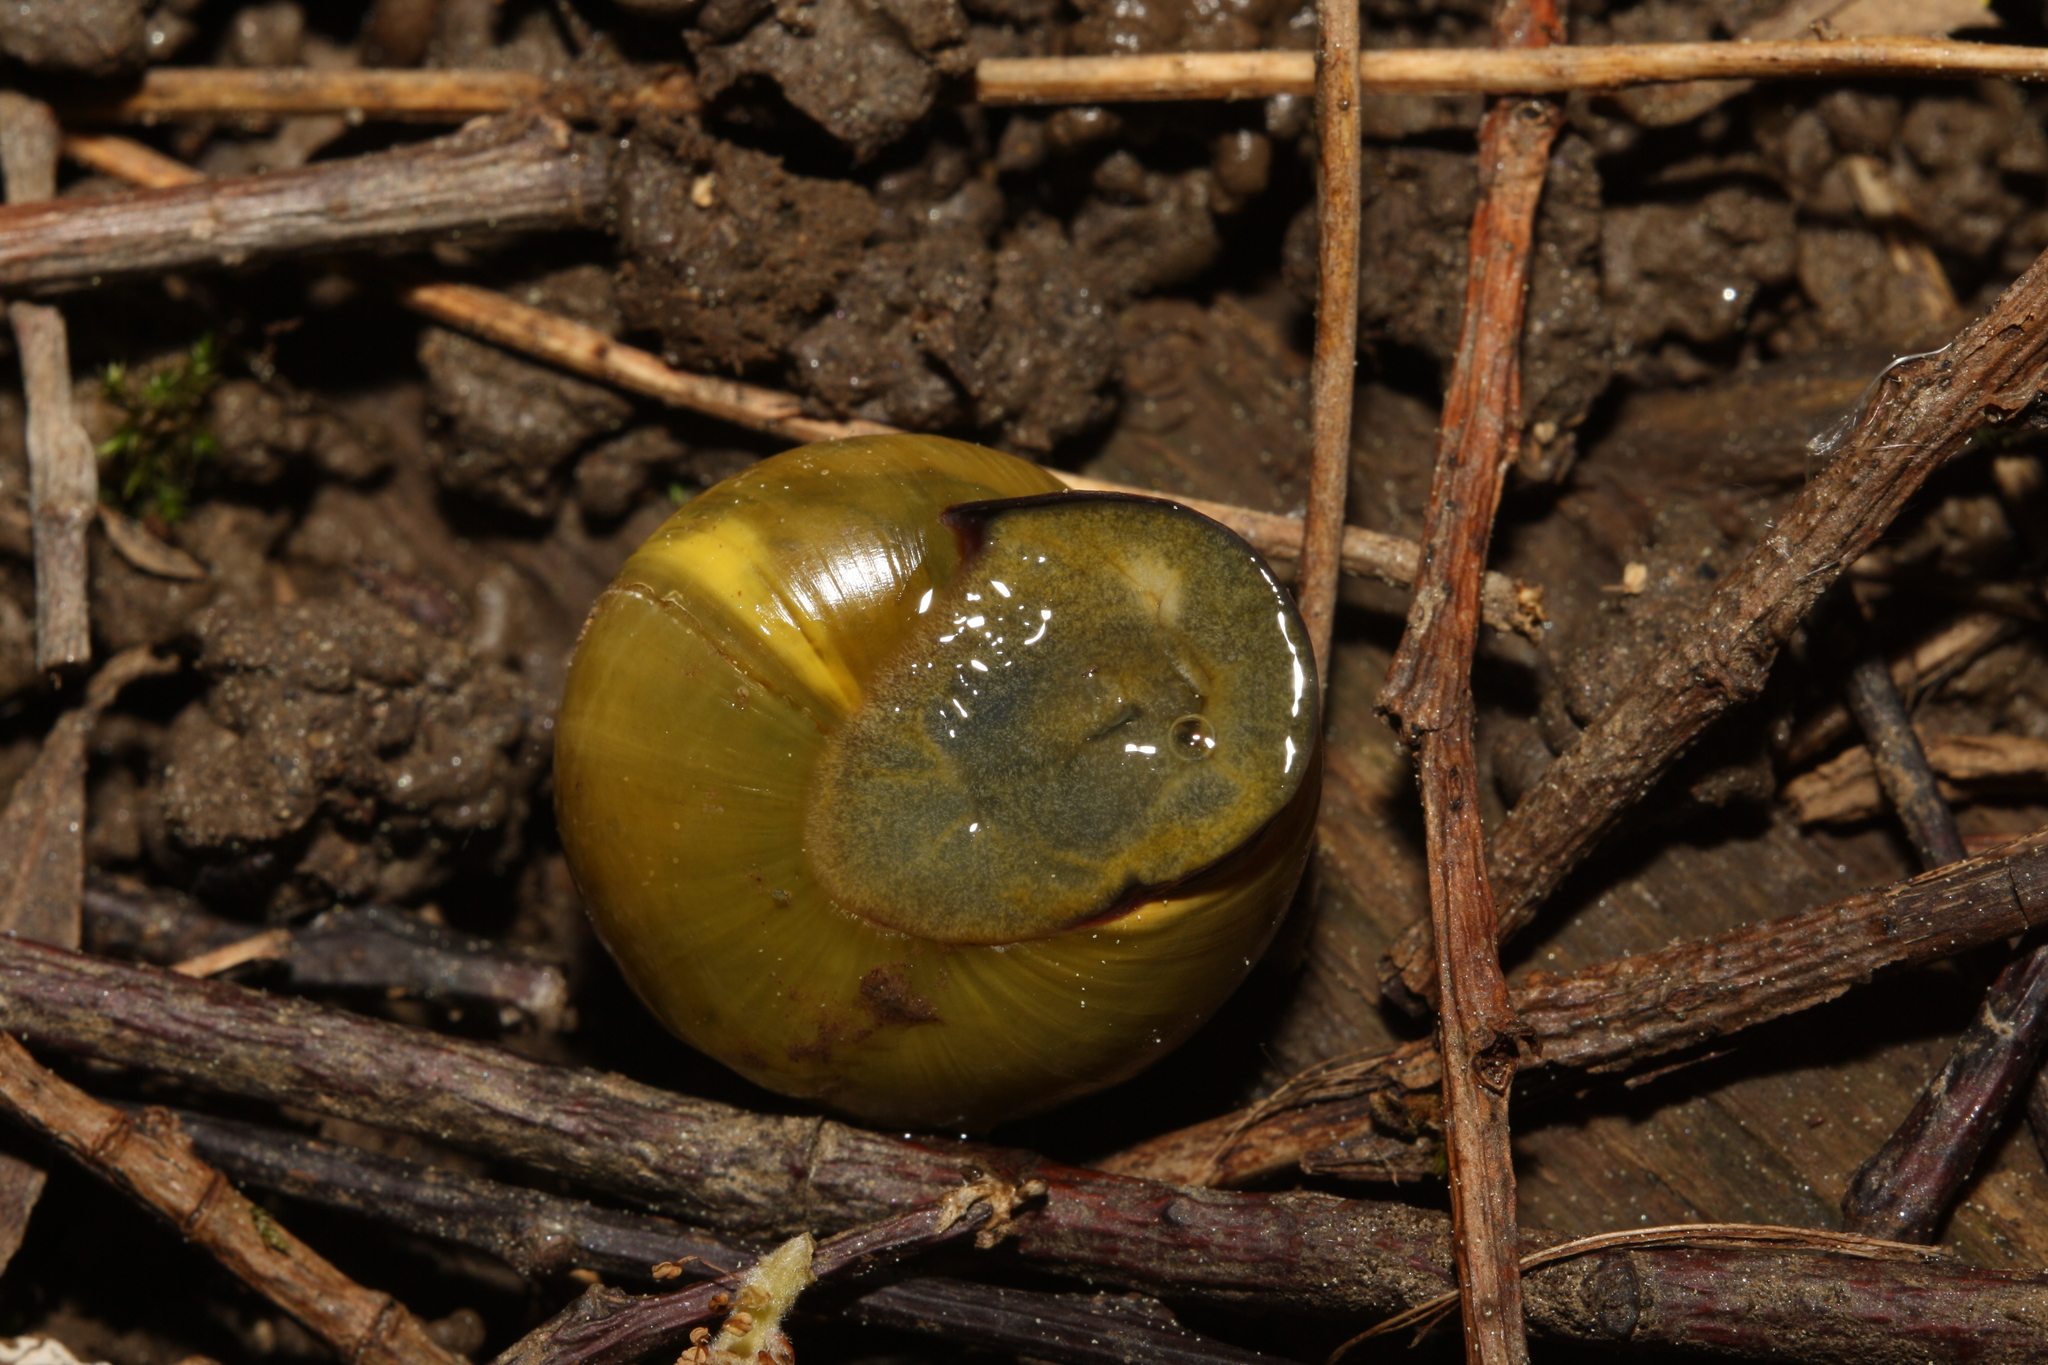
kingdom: Animalia
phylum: Mollusca
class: Gastropoda
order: Stylommatophora
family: Helicidae
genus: Cepaea
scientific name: Cepaea nemoralis
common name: Grovesnail
